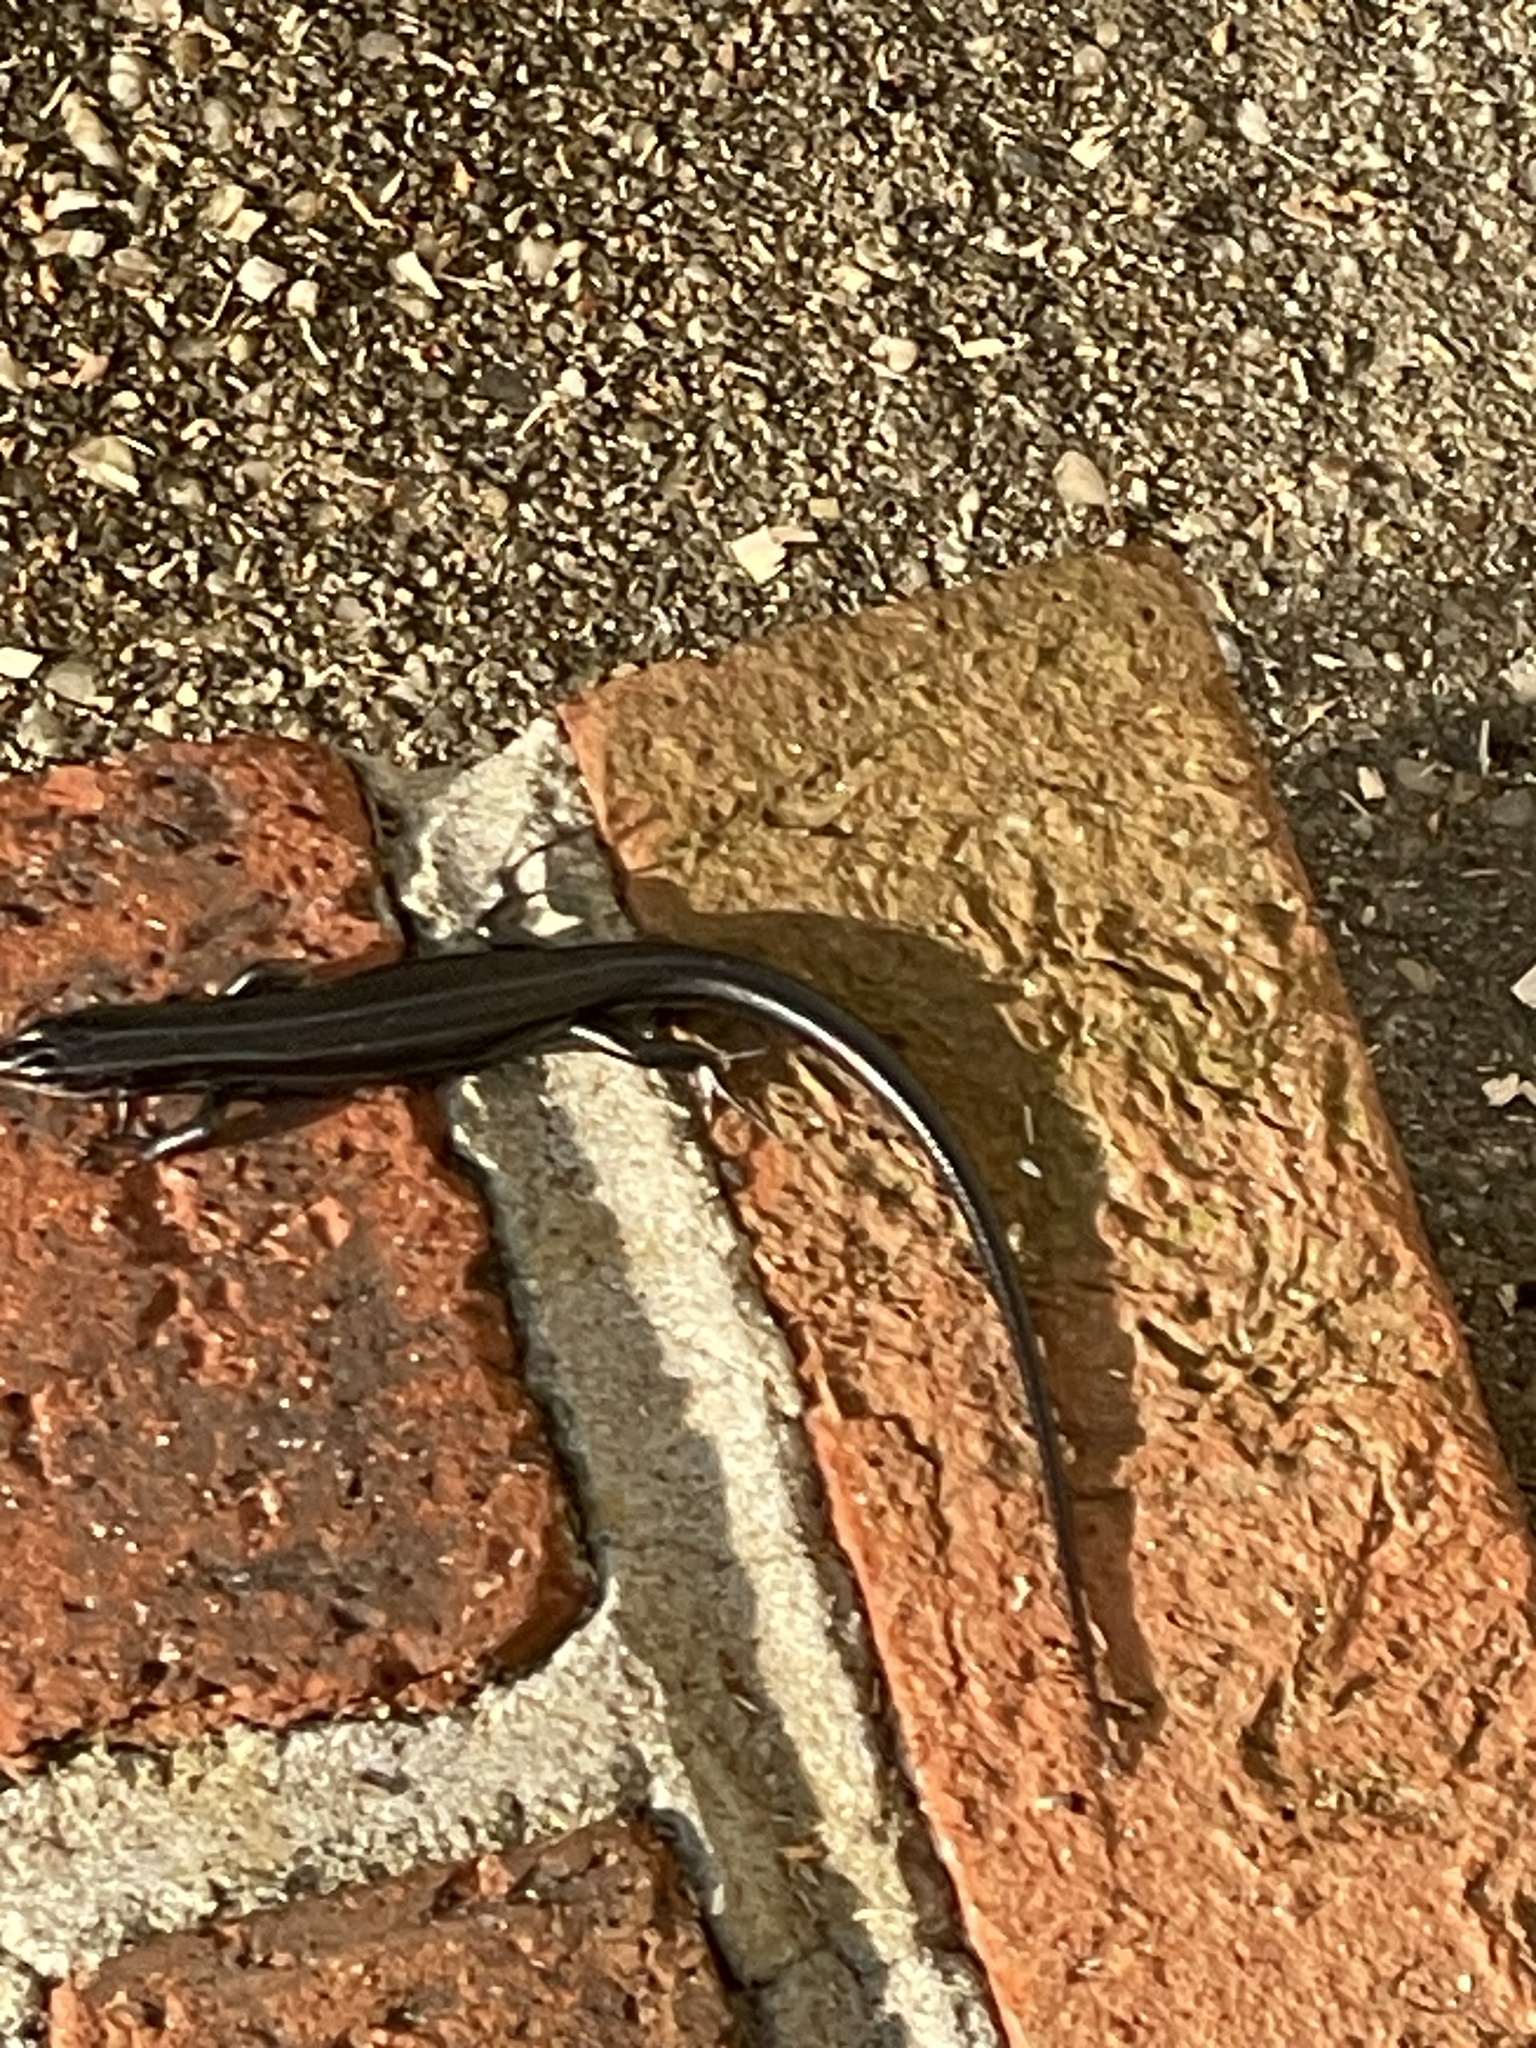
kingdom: Animalia
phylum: Chordata
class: Squamata
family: Scincidae
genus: Plestiodon
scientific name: Plestiodon fasciatus
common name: Five-lined skink
